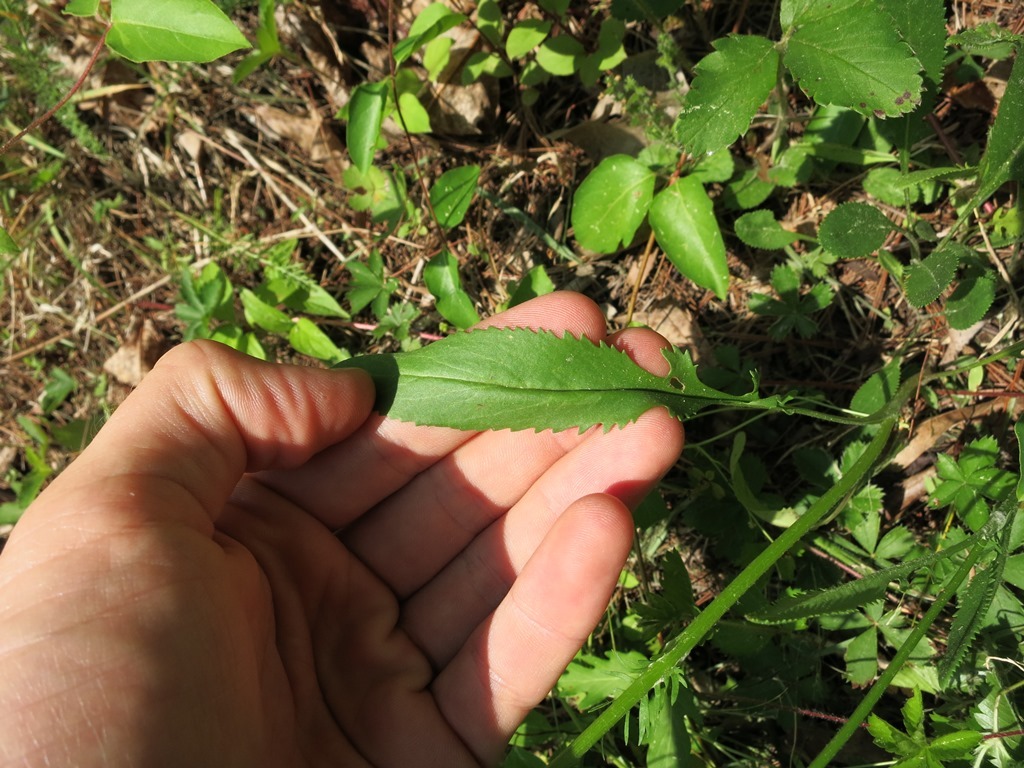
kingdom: Plantae
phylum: Tracheophyta
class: Magnoliopsida
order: Asterales
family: Asteraceae
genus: Packera
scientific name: Packera anonyma
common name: Small ragwort
